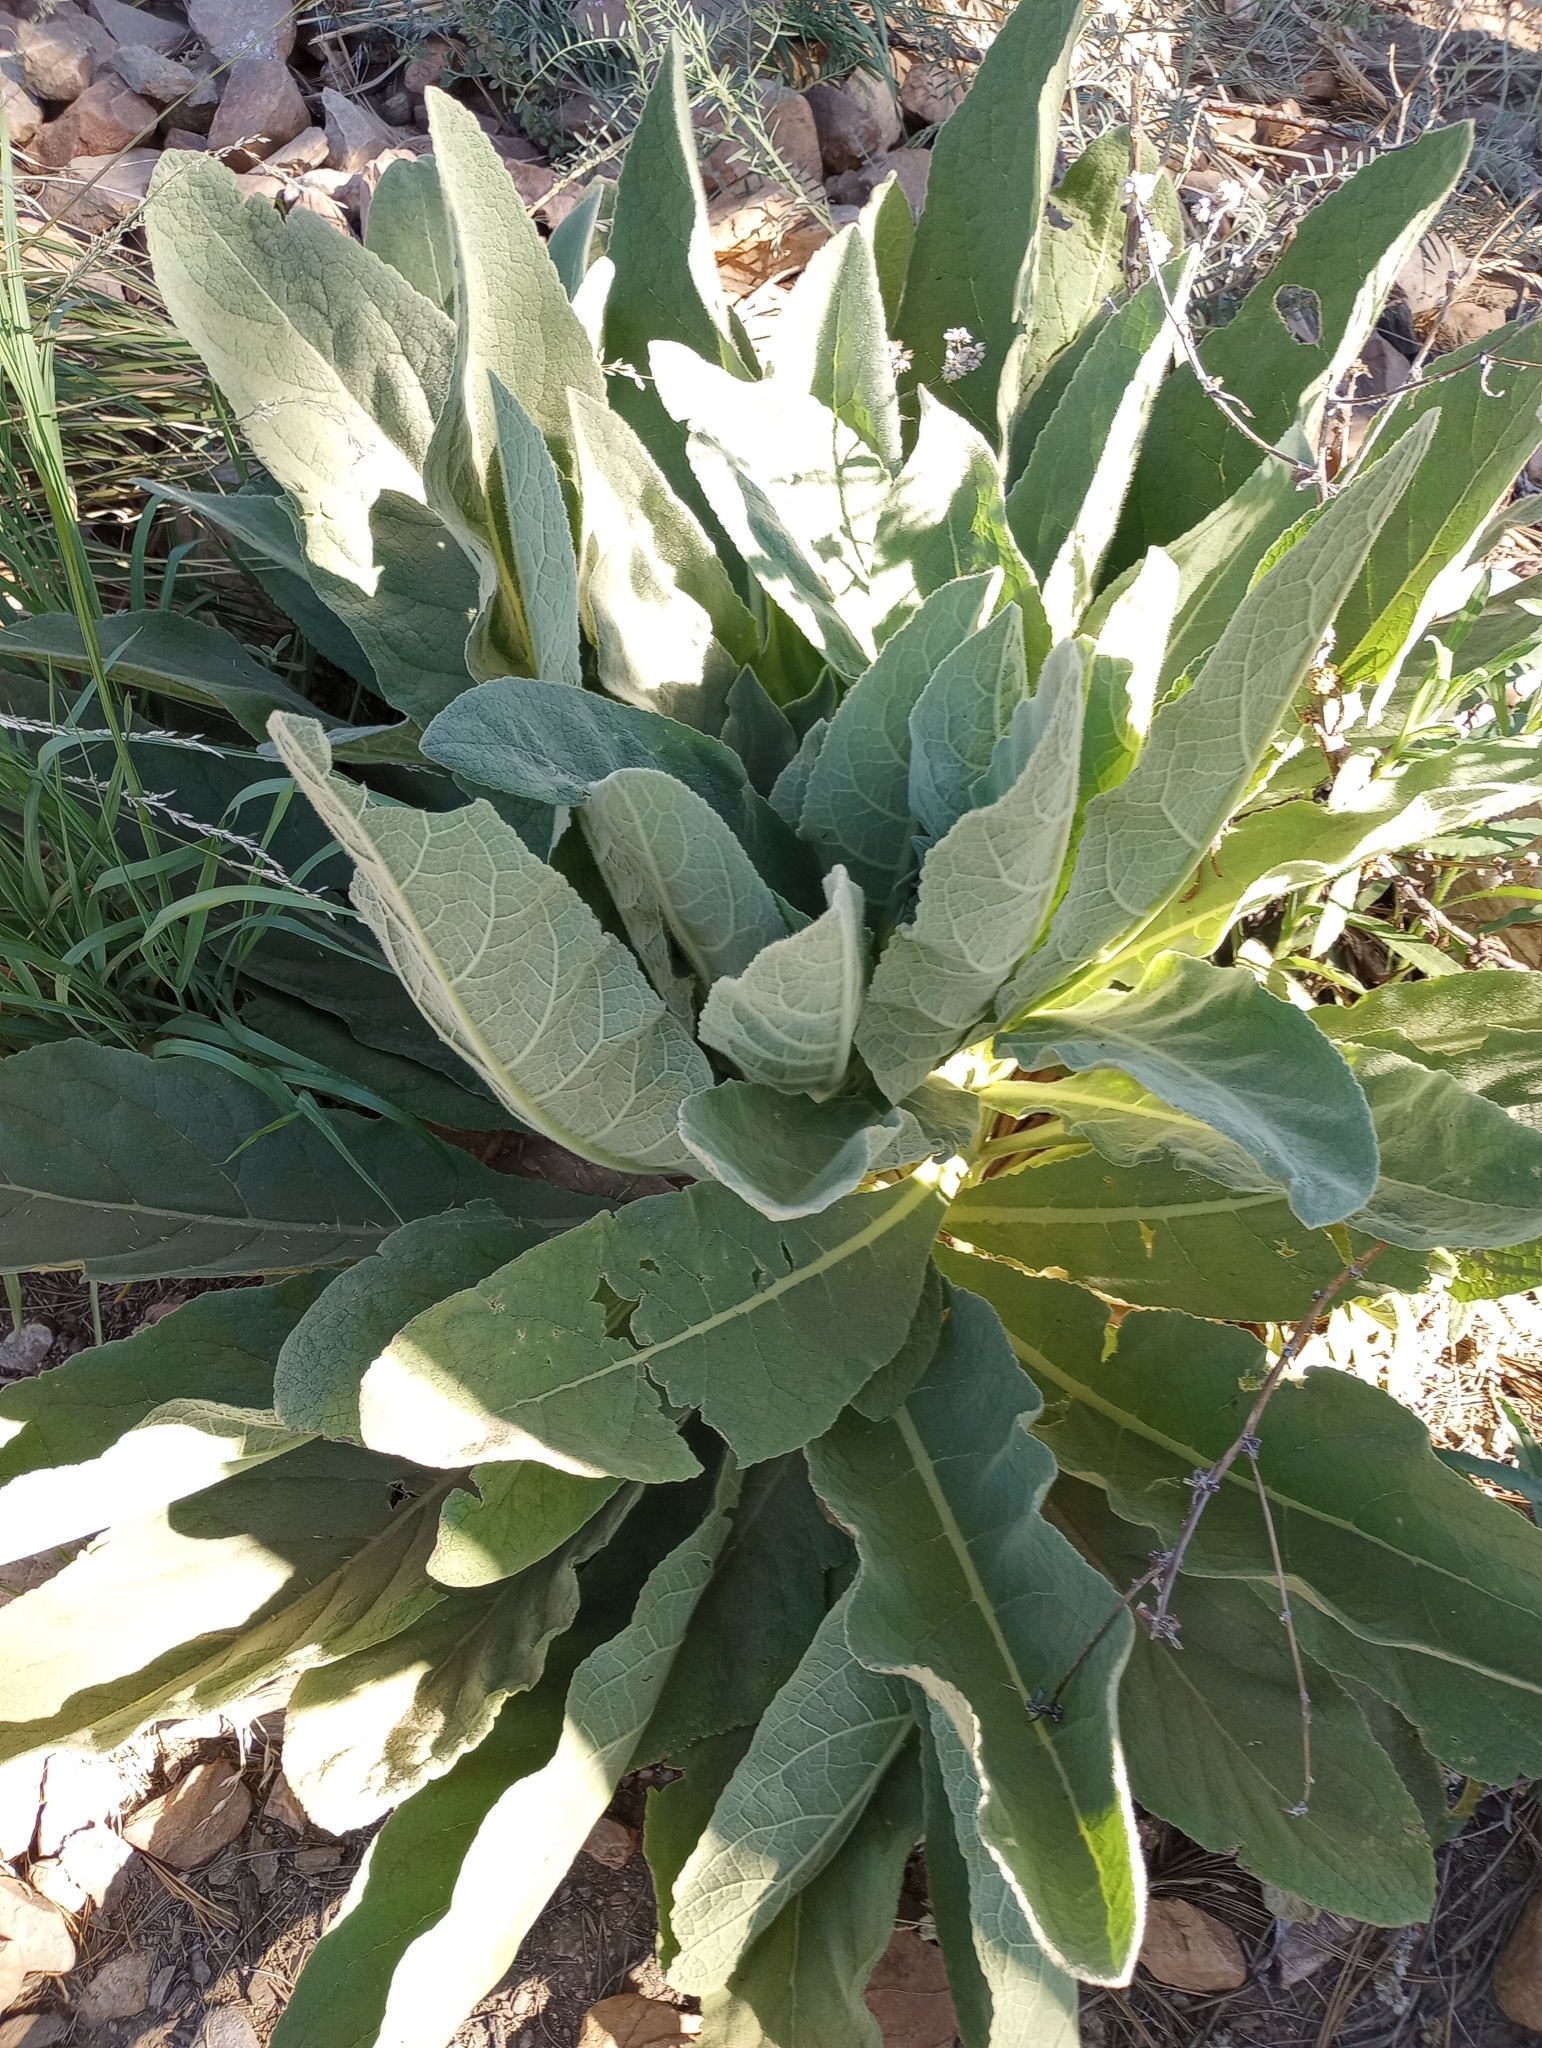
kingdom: Plantae
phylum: Tracheophyta
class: Magnoliopsida
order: Lamiales
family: Scrophulariaceae
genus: Verbascum
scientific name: Verbascum thapsus
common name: Common mullein
